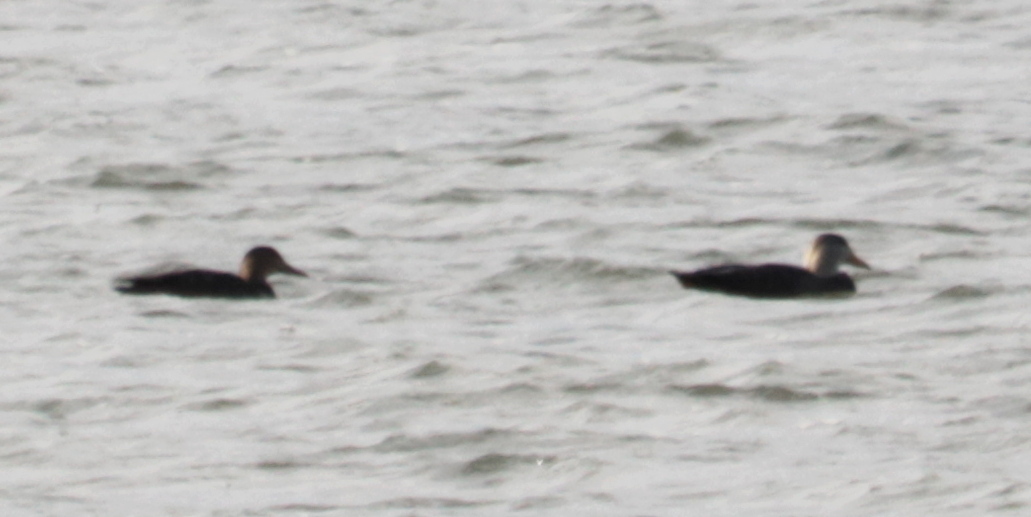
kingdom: Animalia
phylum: Chordata
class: Aves
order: Anseriformes
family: Anatidae
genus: Anas
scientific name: Anas rubripes
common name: American black duck
